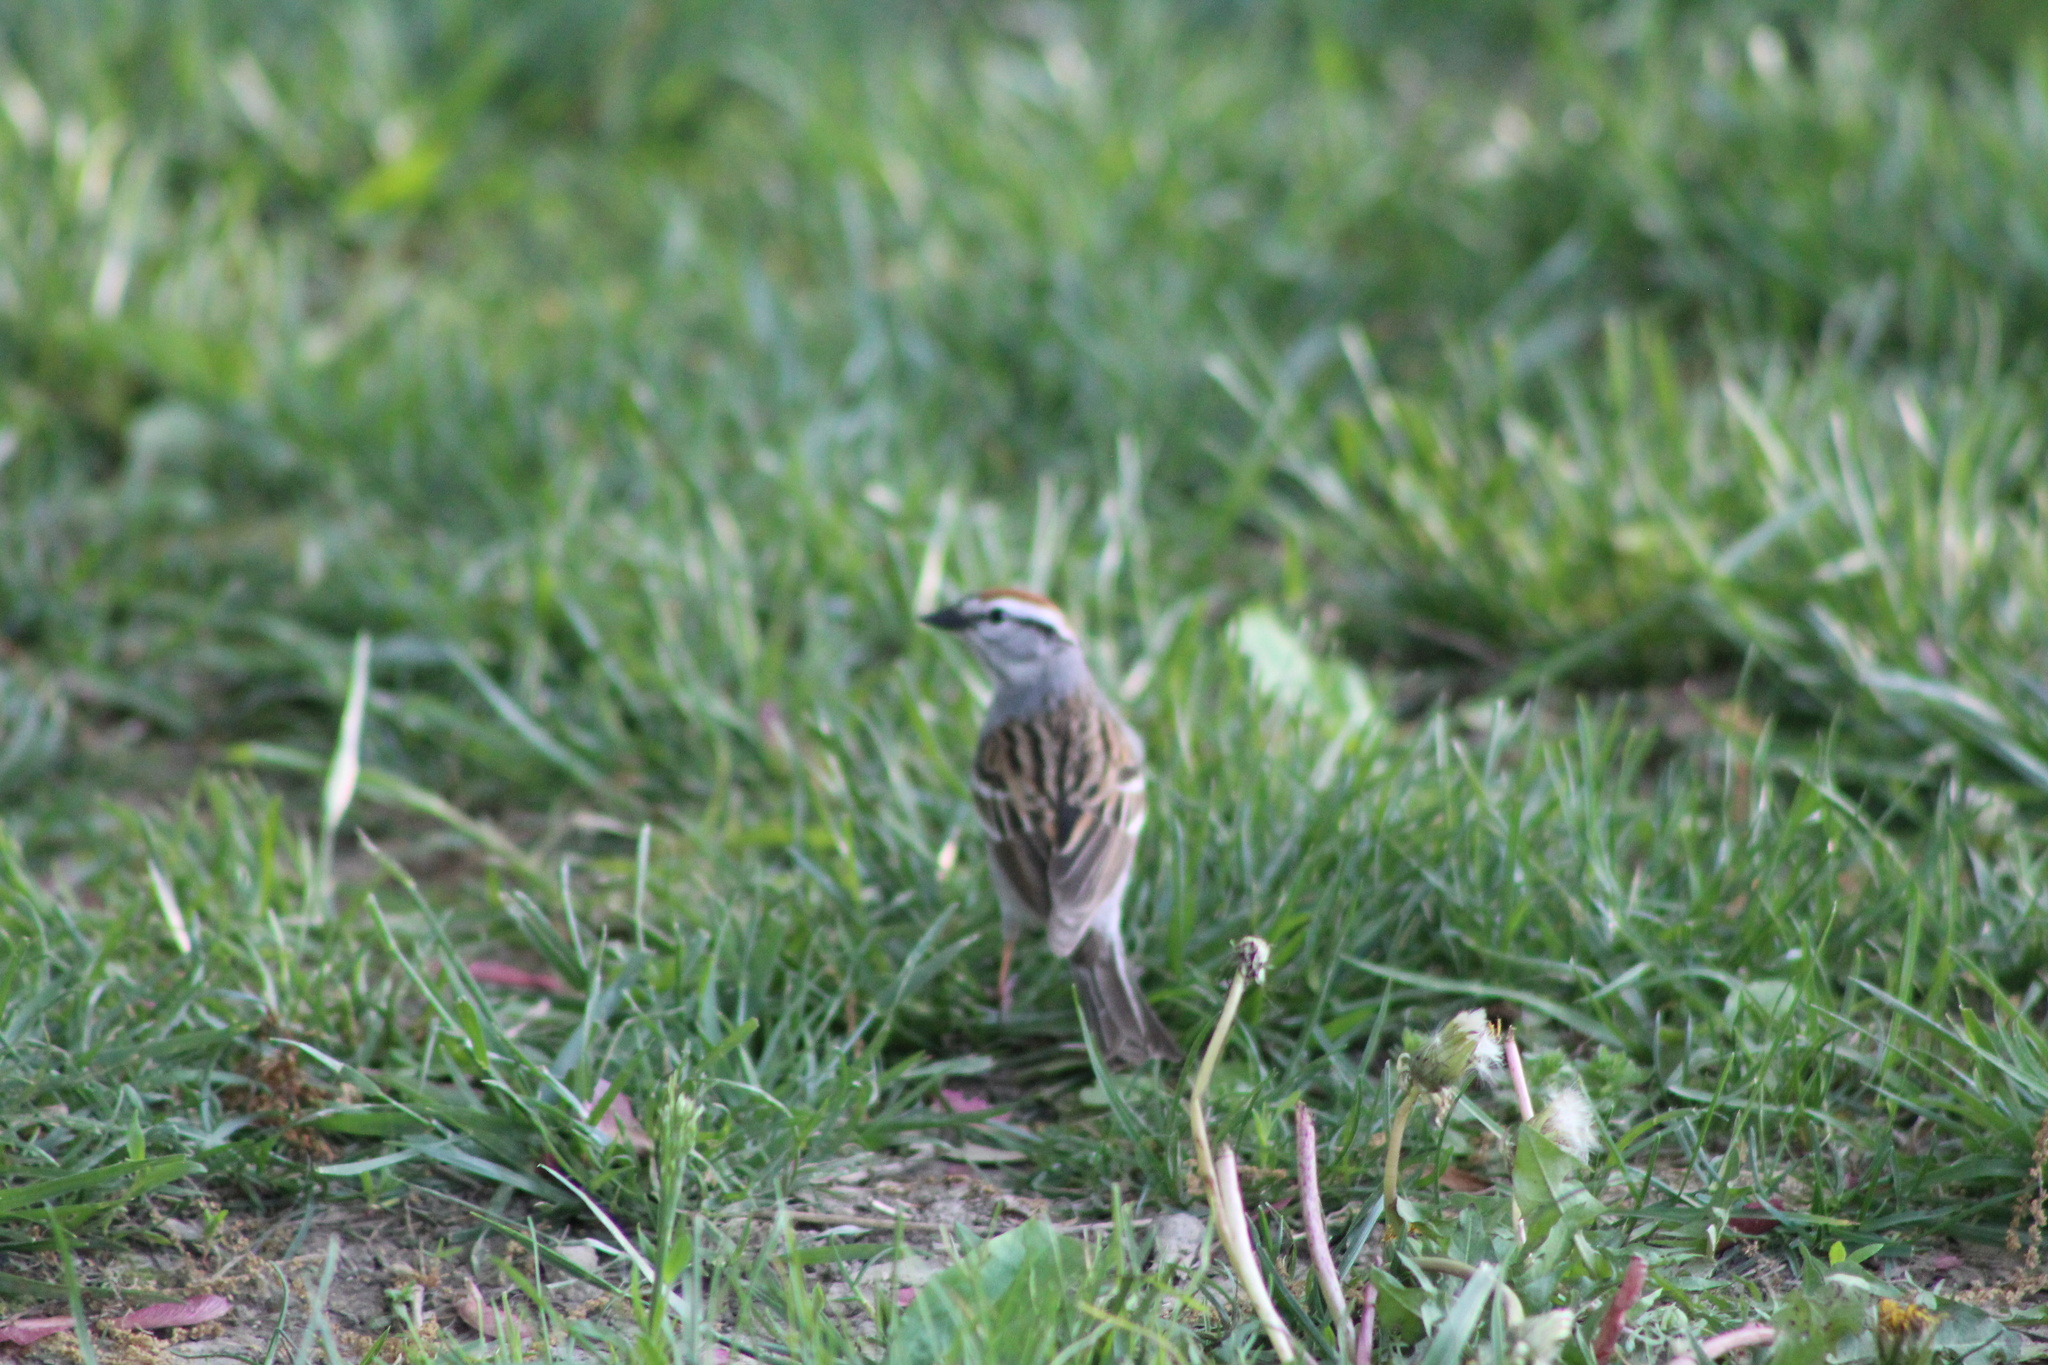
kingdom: Animalia
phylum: Chordata
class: Aves
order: Passeriformes
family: Passerellidae
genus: Spizella
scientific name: Spizella passerina
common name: Chipping sparrow
